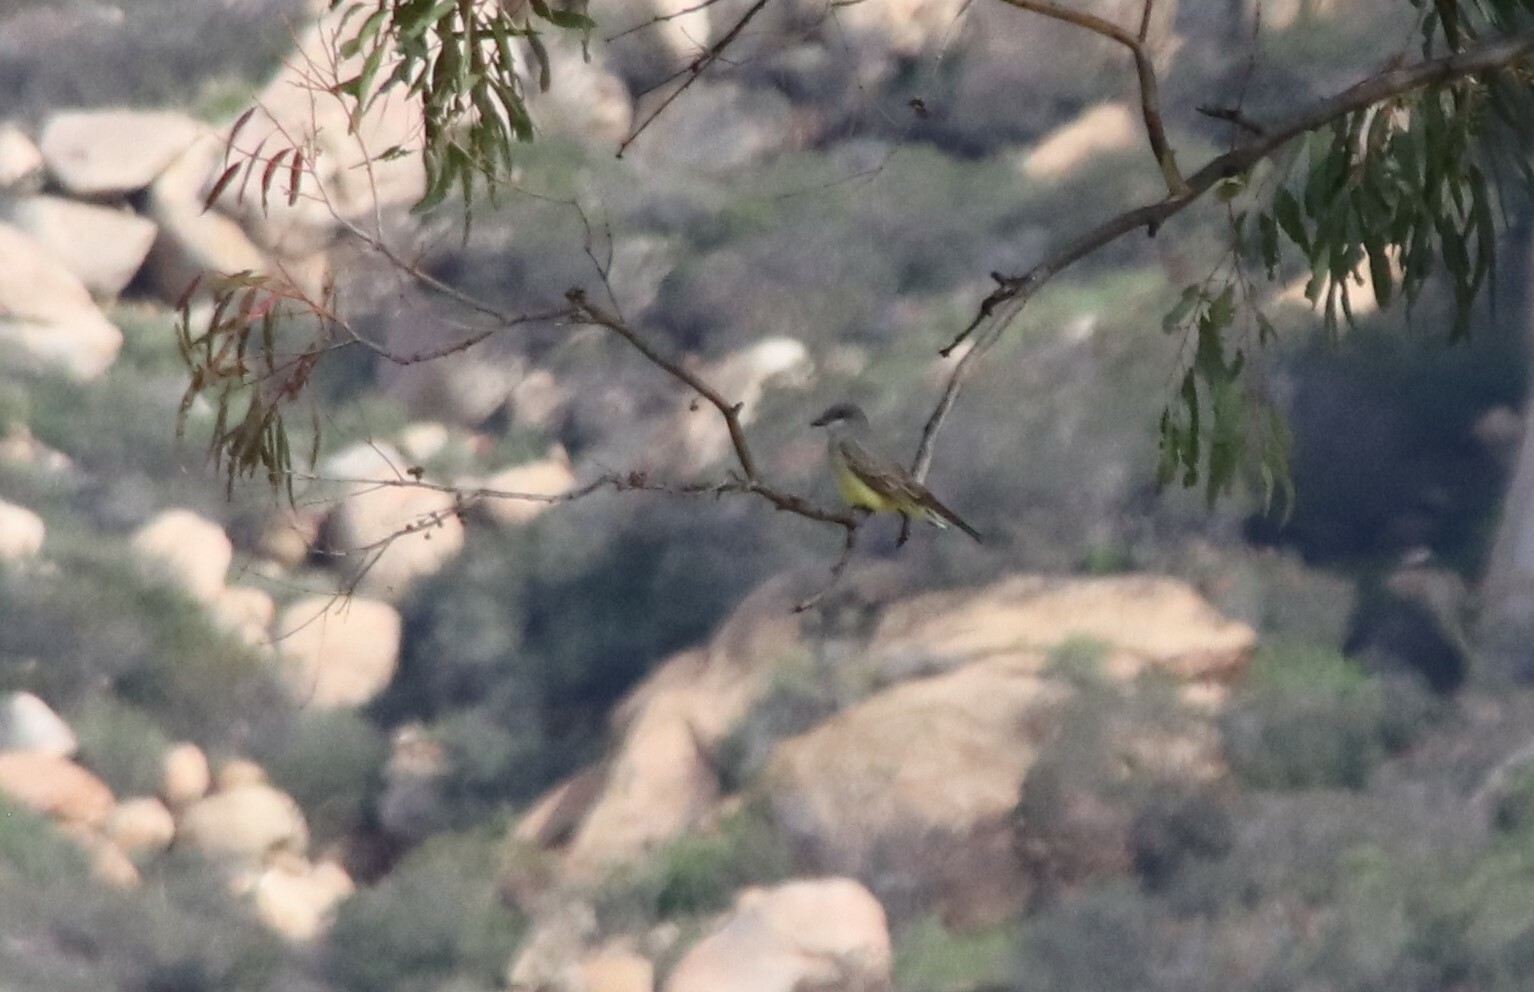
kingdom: Animalia
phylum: Chordata
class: Aves
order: Passeriformes
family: Tyrannidae
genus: Tyrannus
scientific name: Tyrannus vociferans
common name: Cassin's kingbird
